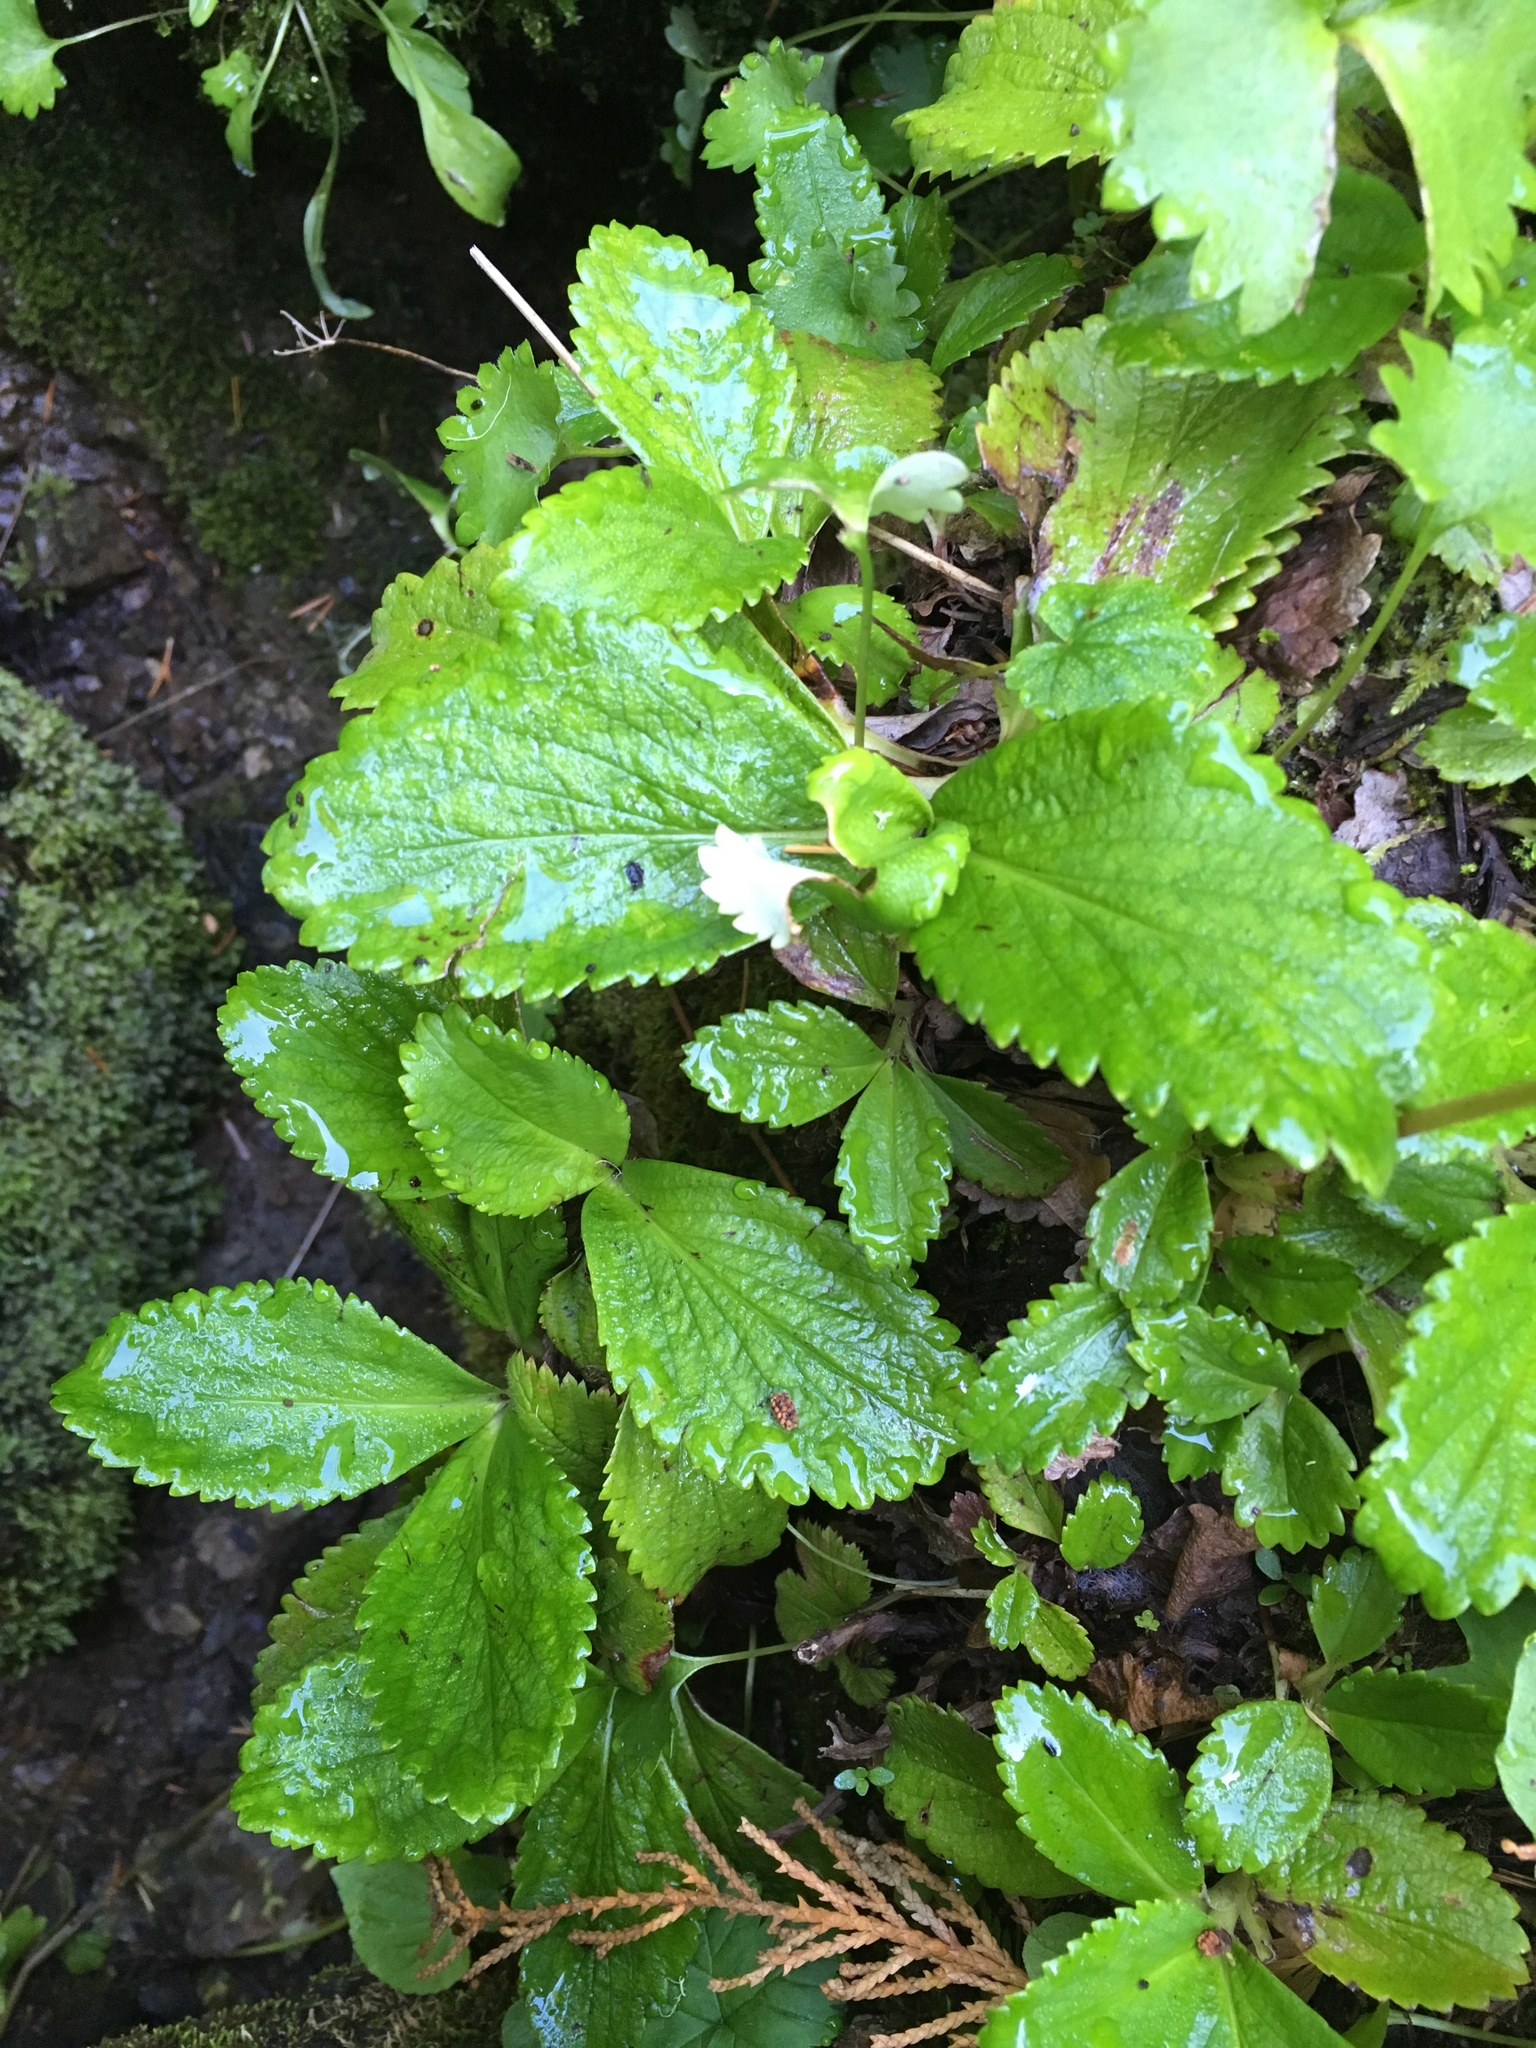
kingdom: Plantae
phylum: Tracheophyta
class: Magnoliopsida
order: Saxifragales
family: Saxifragaceae
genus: Leptarrhena
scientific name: Leptarrhena pyrolifolia
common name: Leatherleaf-saxifrage
